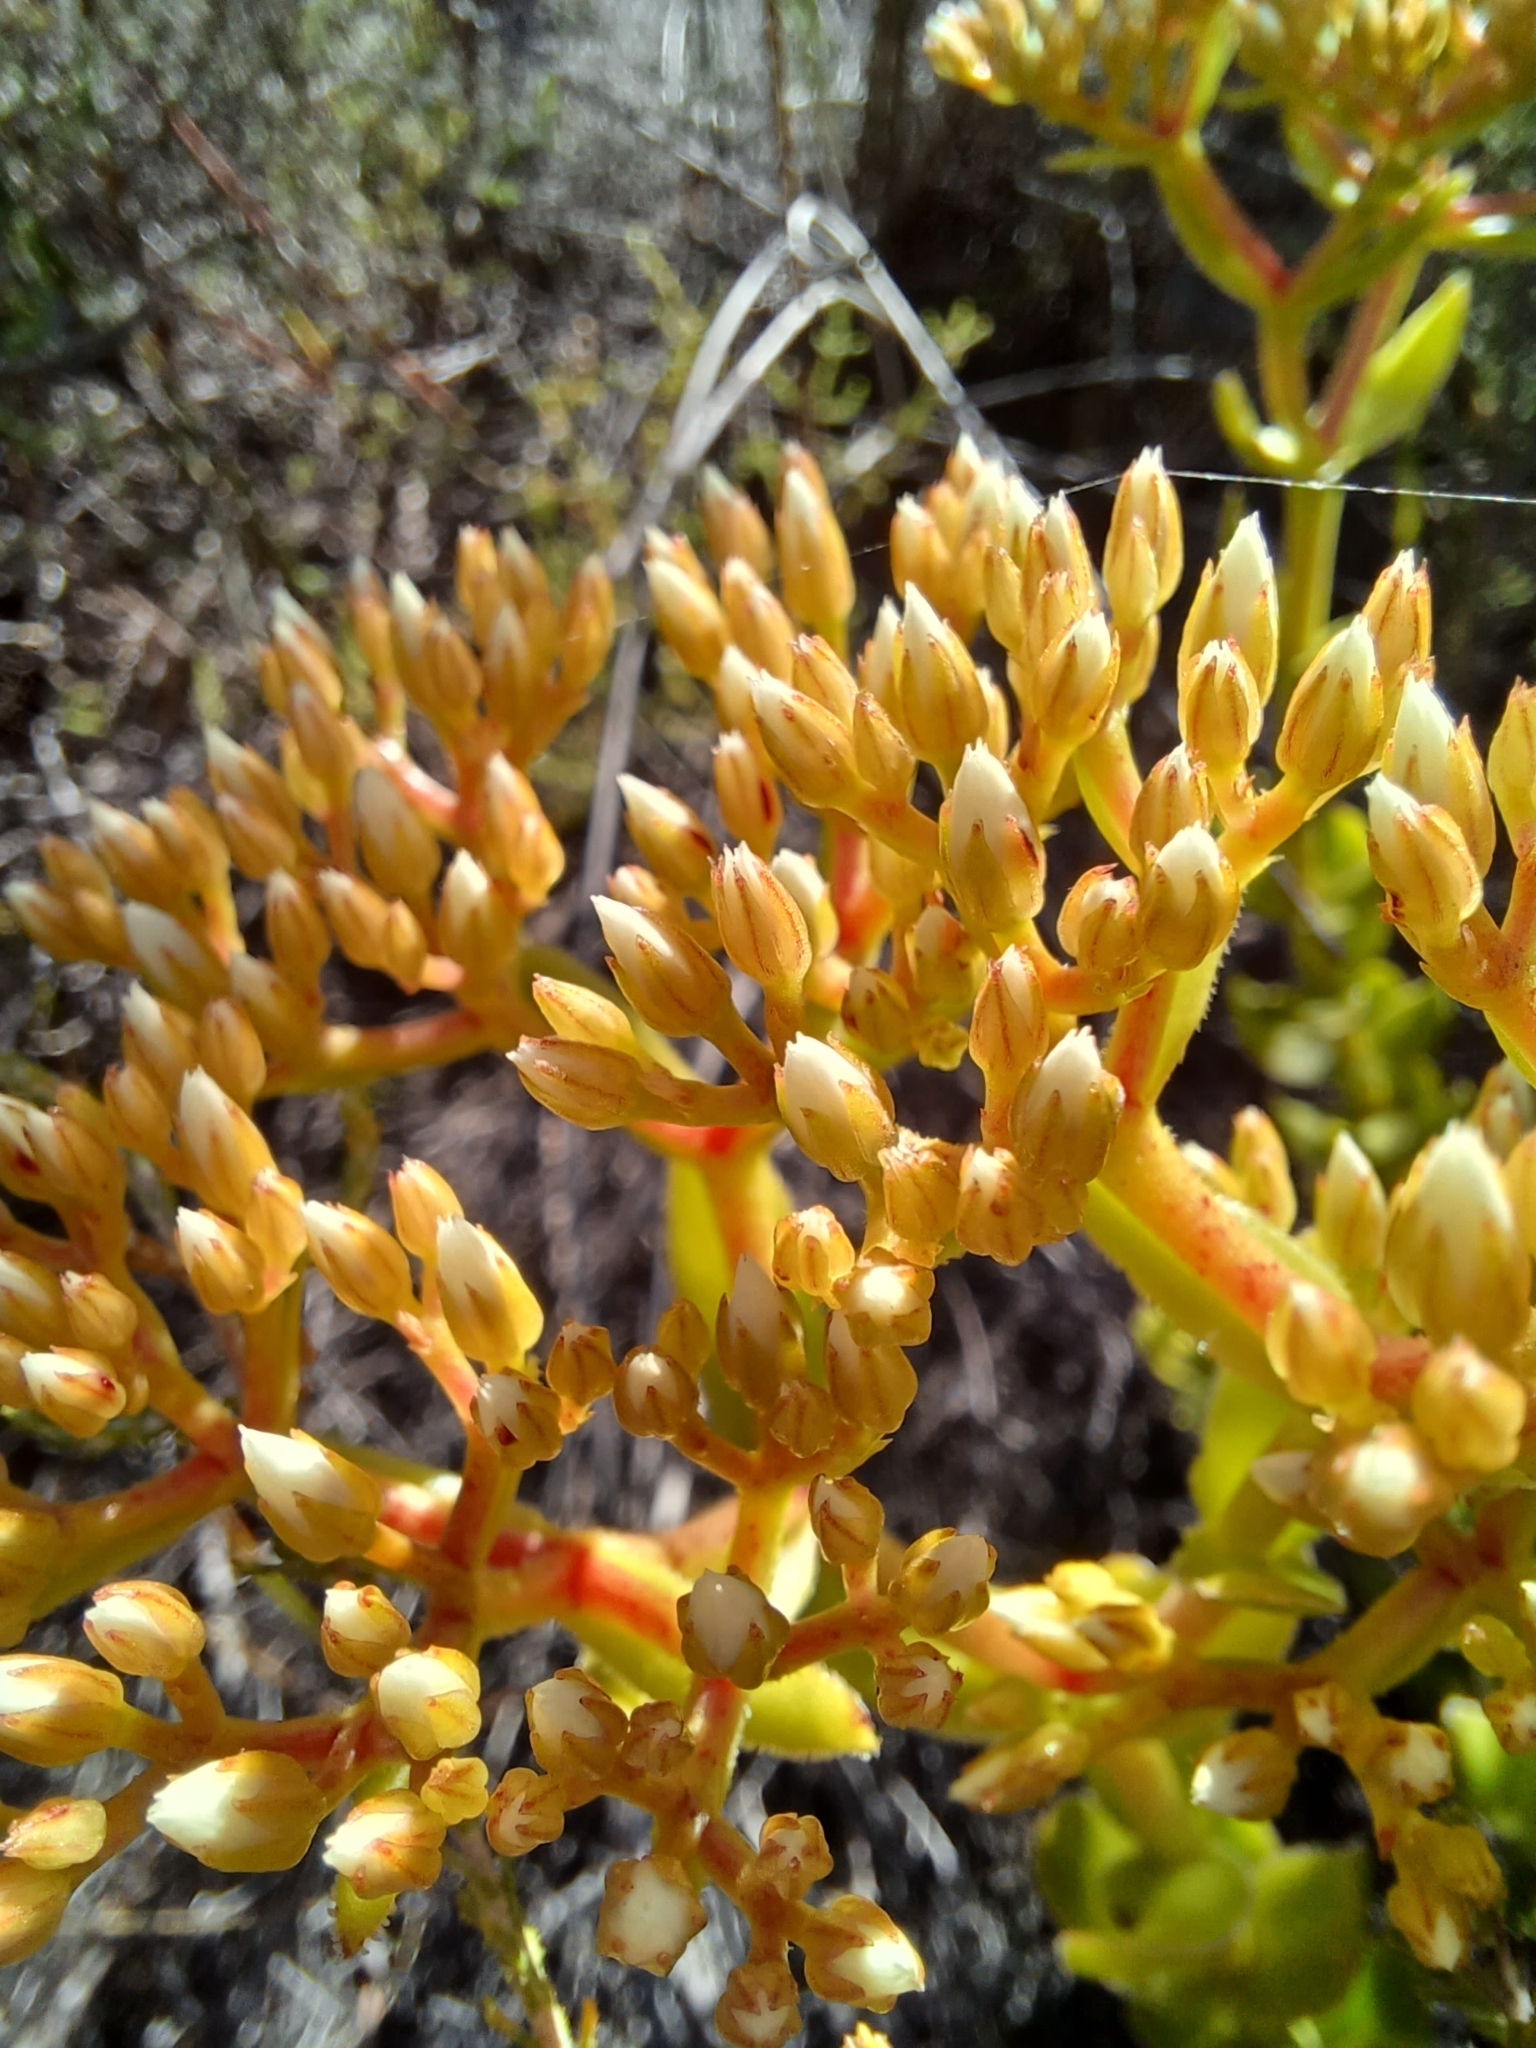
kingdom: Plantae
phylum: Tracheophyta
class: Magnoliopsida
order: Saxifragales
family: Crassulaceae
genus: Crassula
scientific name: Crassula undulata
